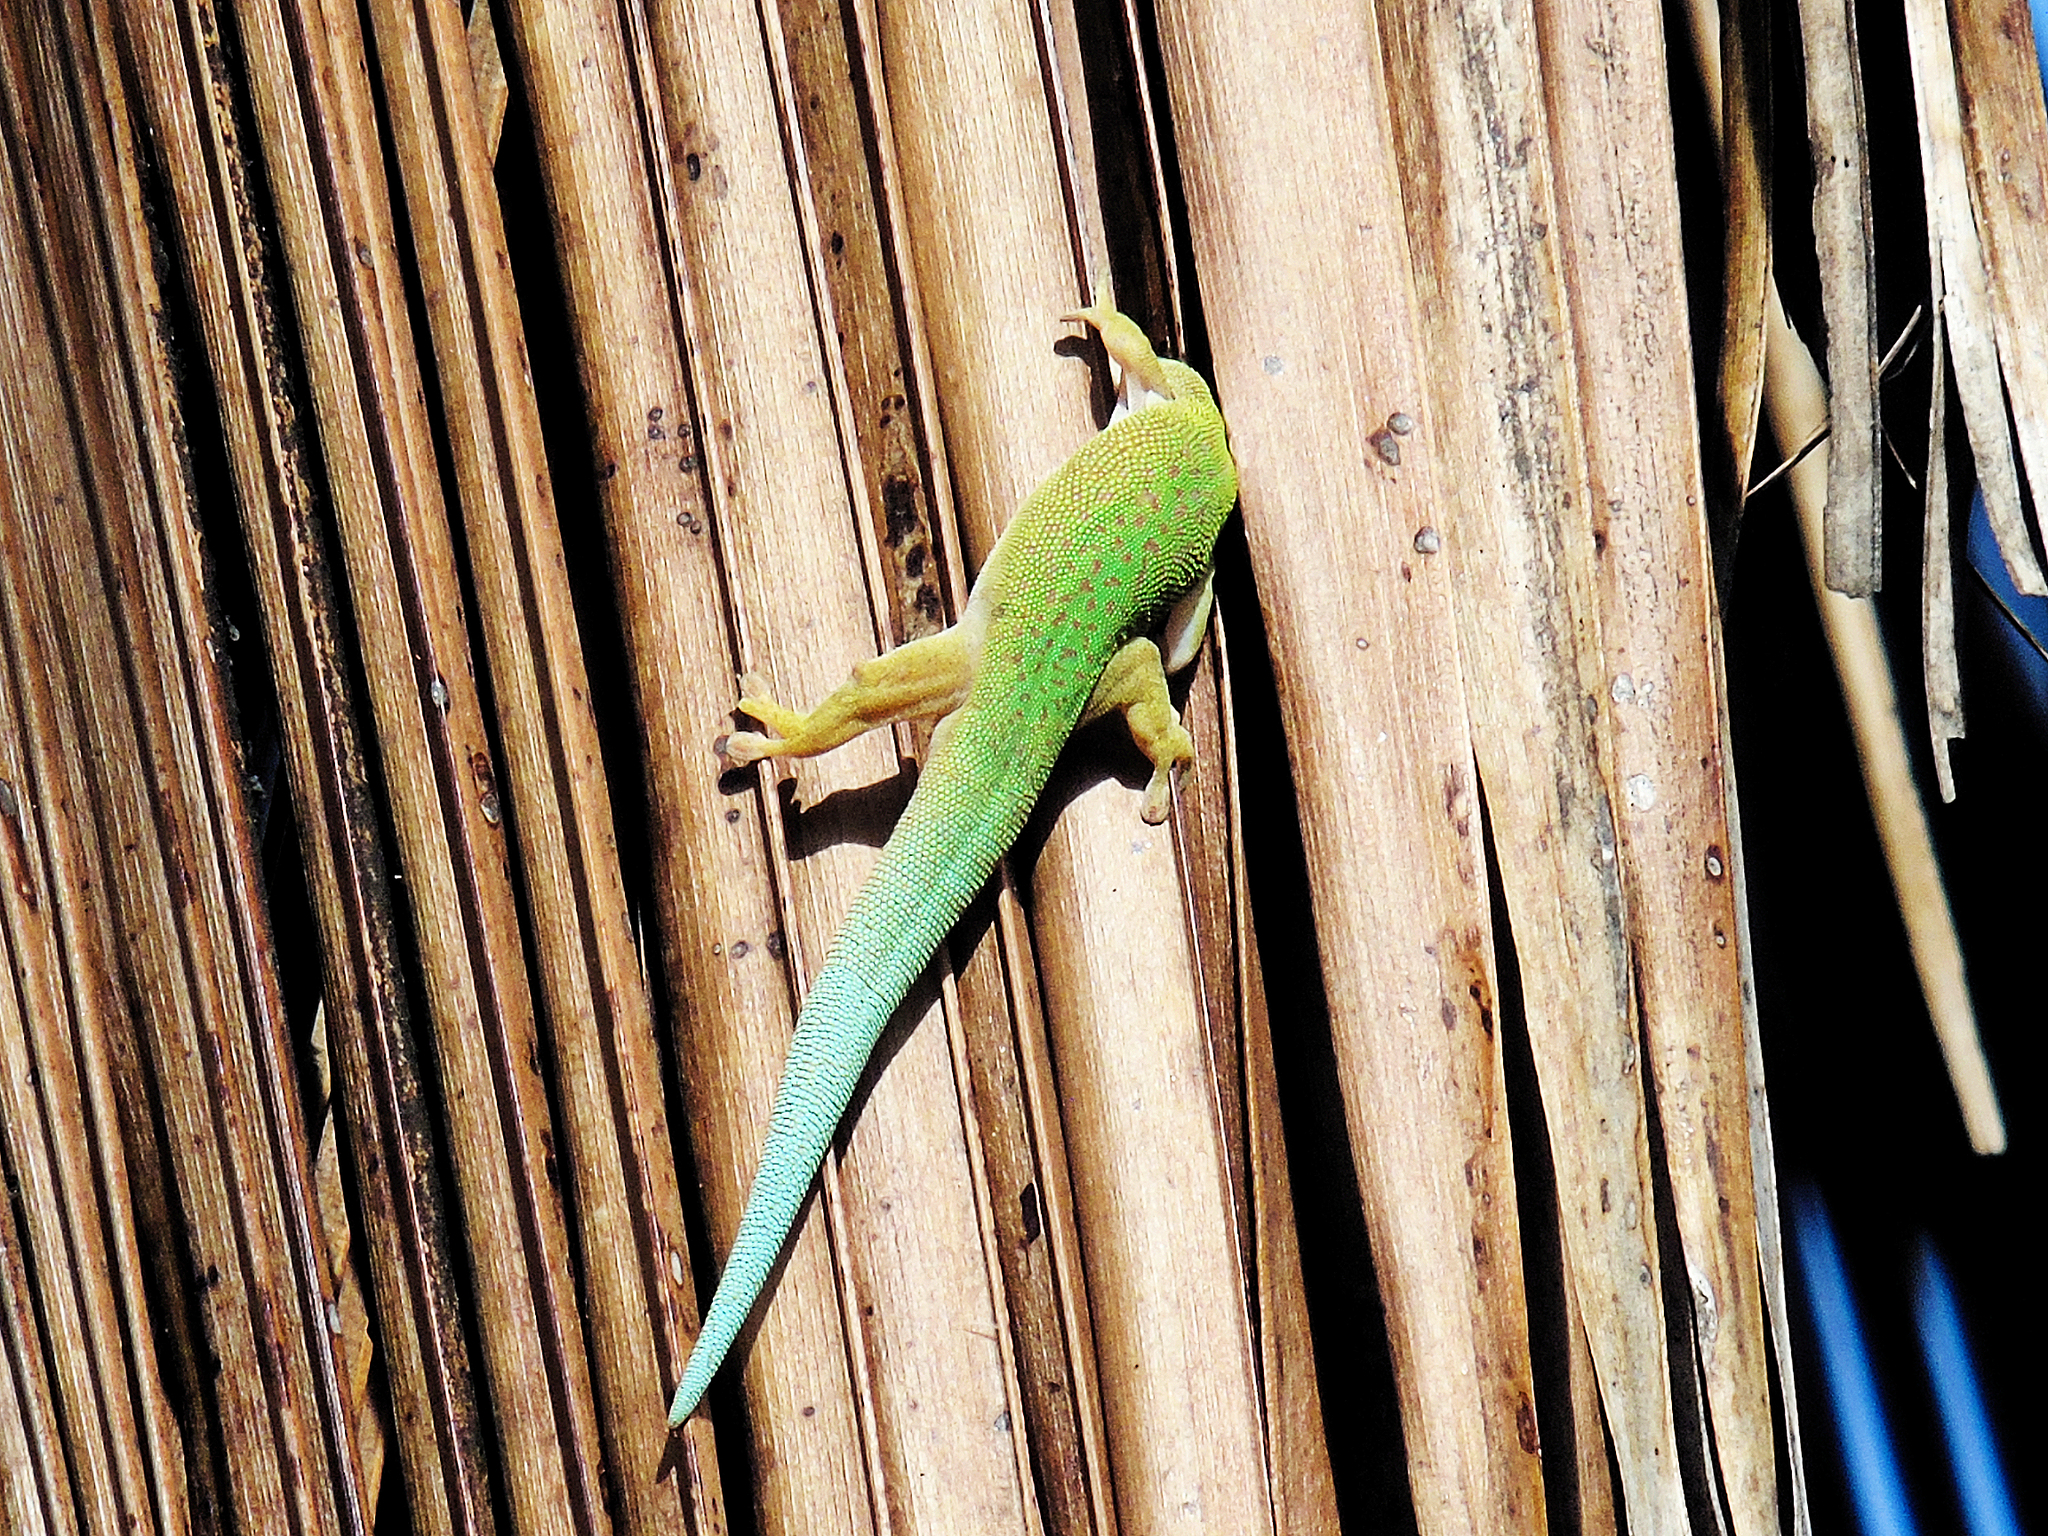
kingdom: Animalia
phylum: Chordata
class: Squamata
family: Gekkonidae
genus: Phelsuma
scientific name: Phelsuma dubia
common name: Zanzibar day gecko
